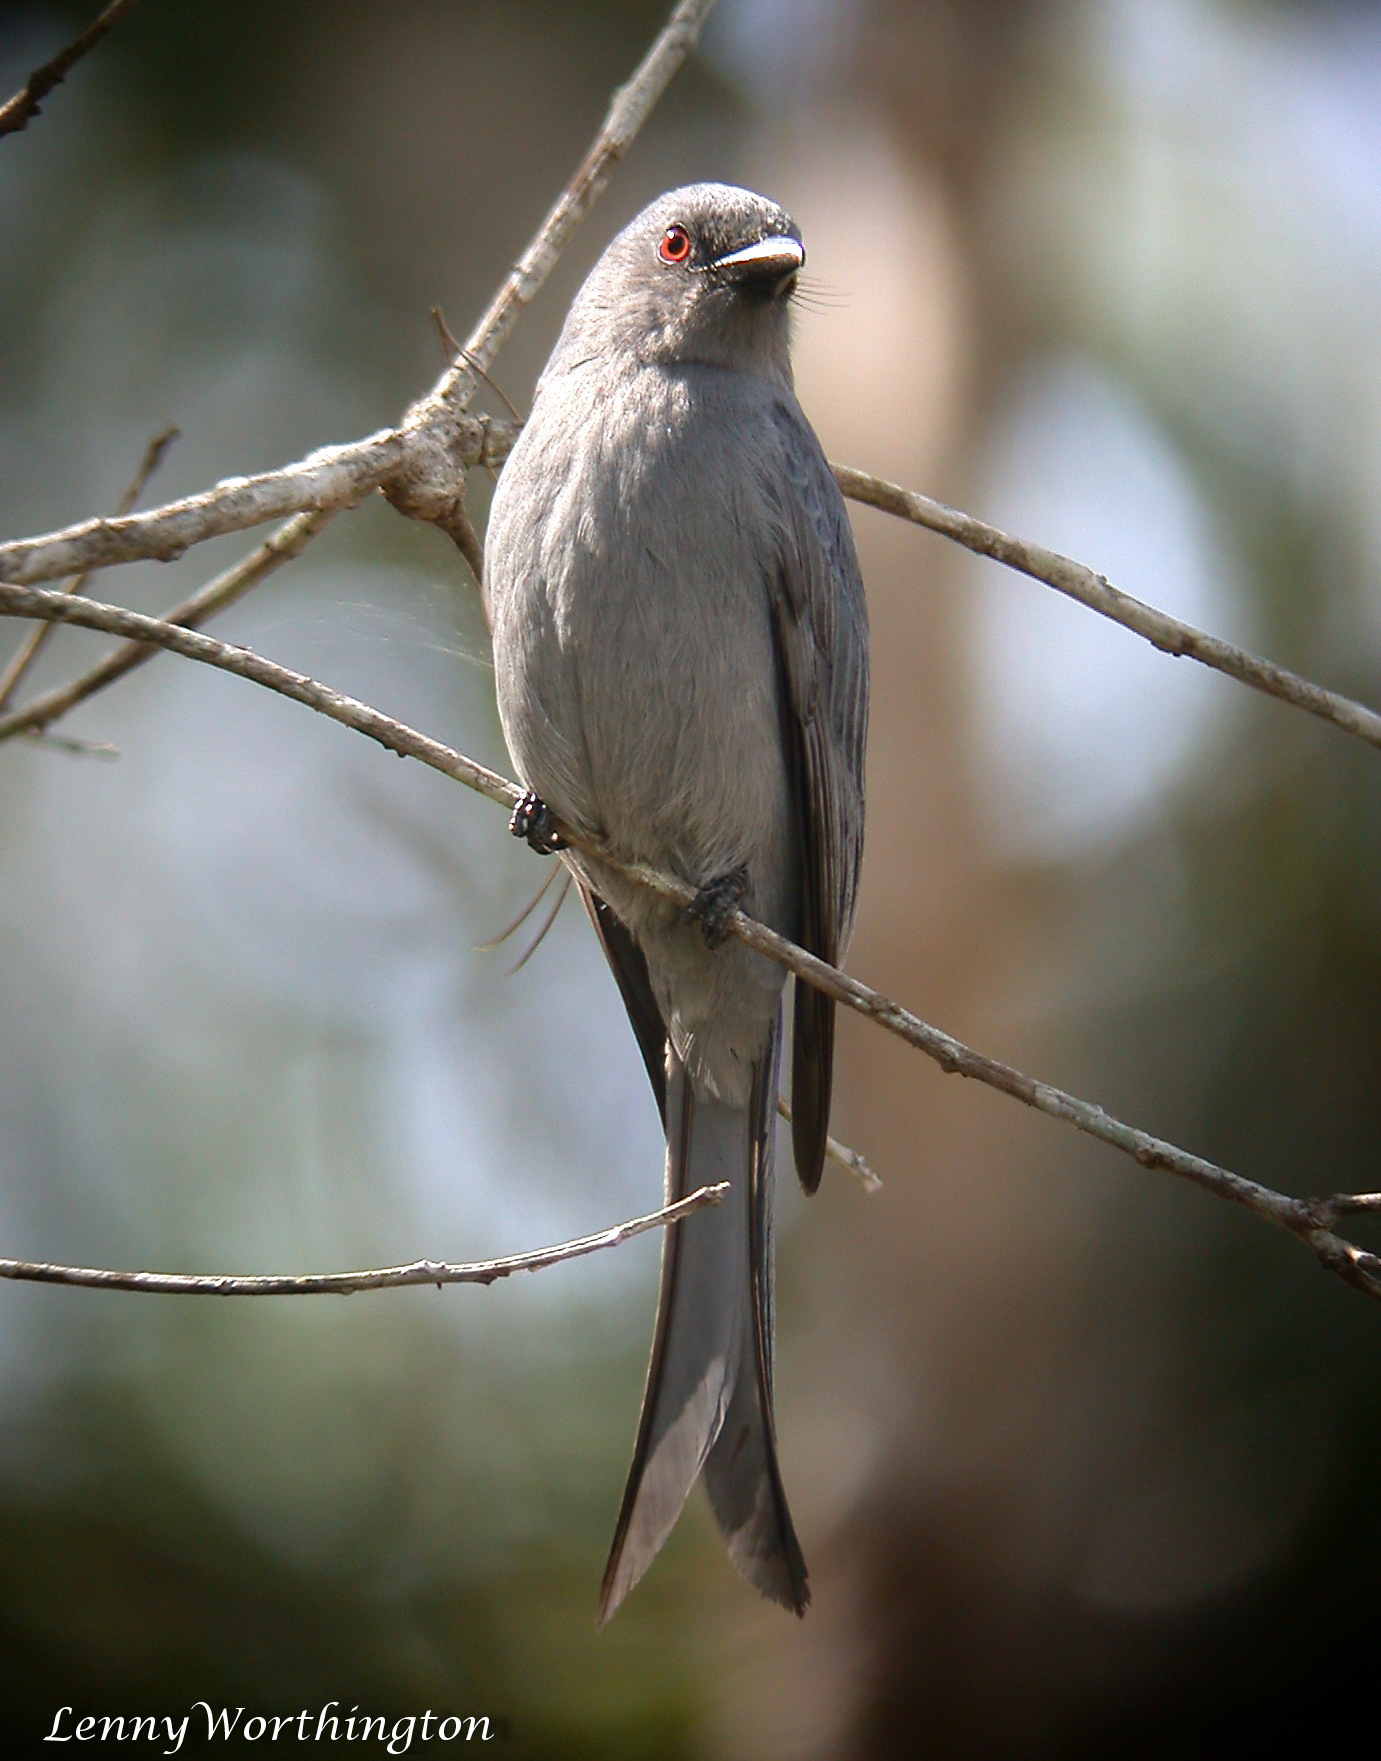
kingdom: Animalia
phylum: Chordata
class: Aves
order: Passeriformes
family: Dicruridae
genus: Dicrurus
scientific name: Dicrurus leucophaeus
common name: Ashy drongo
